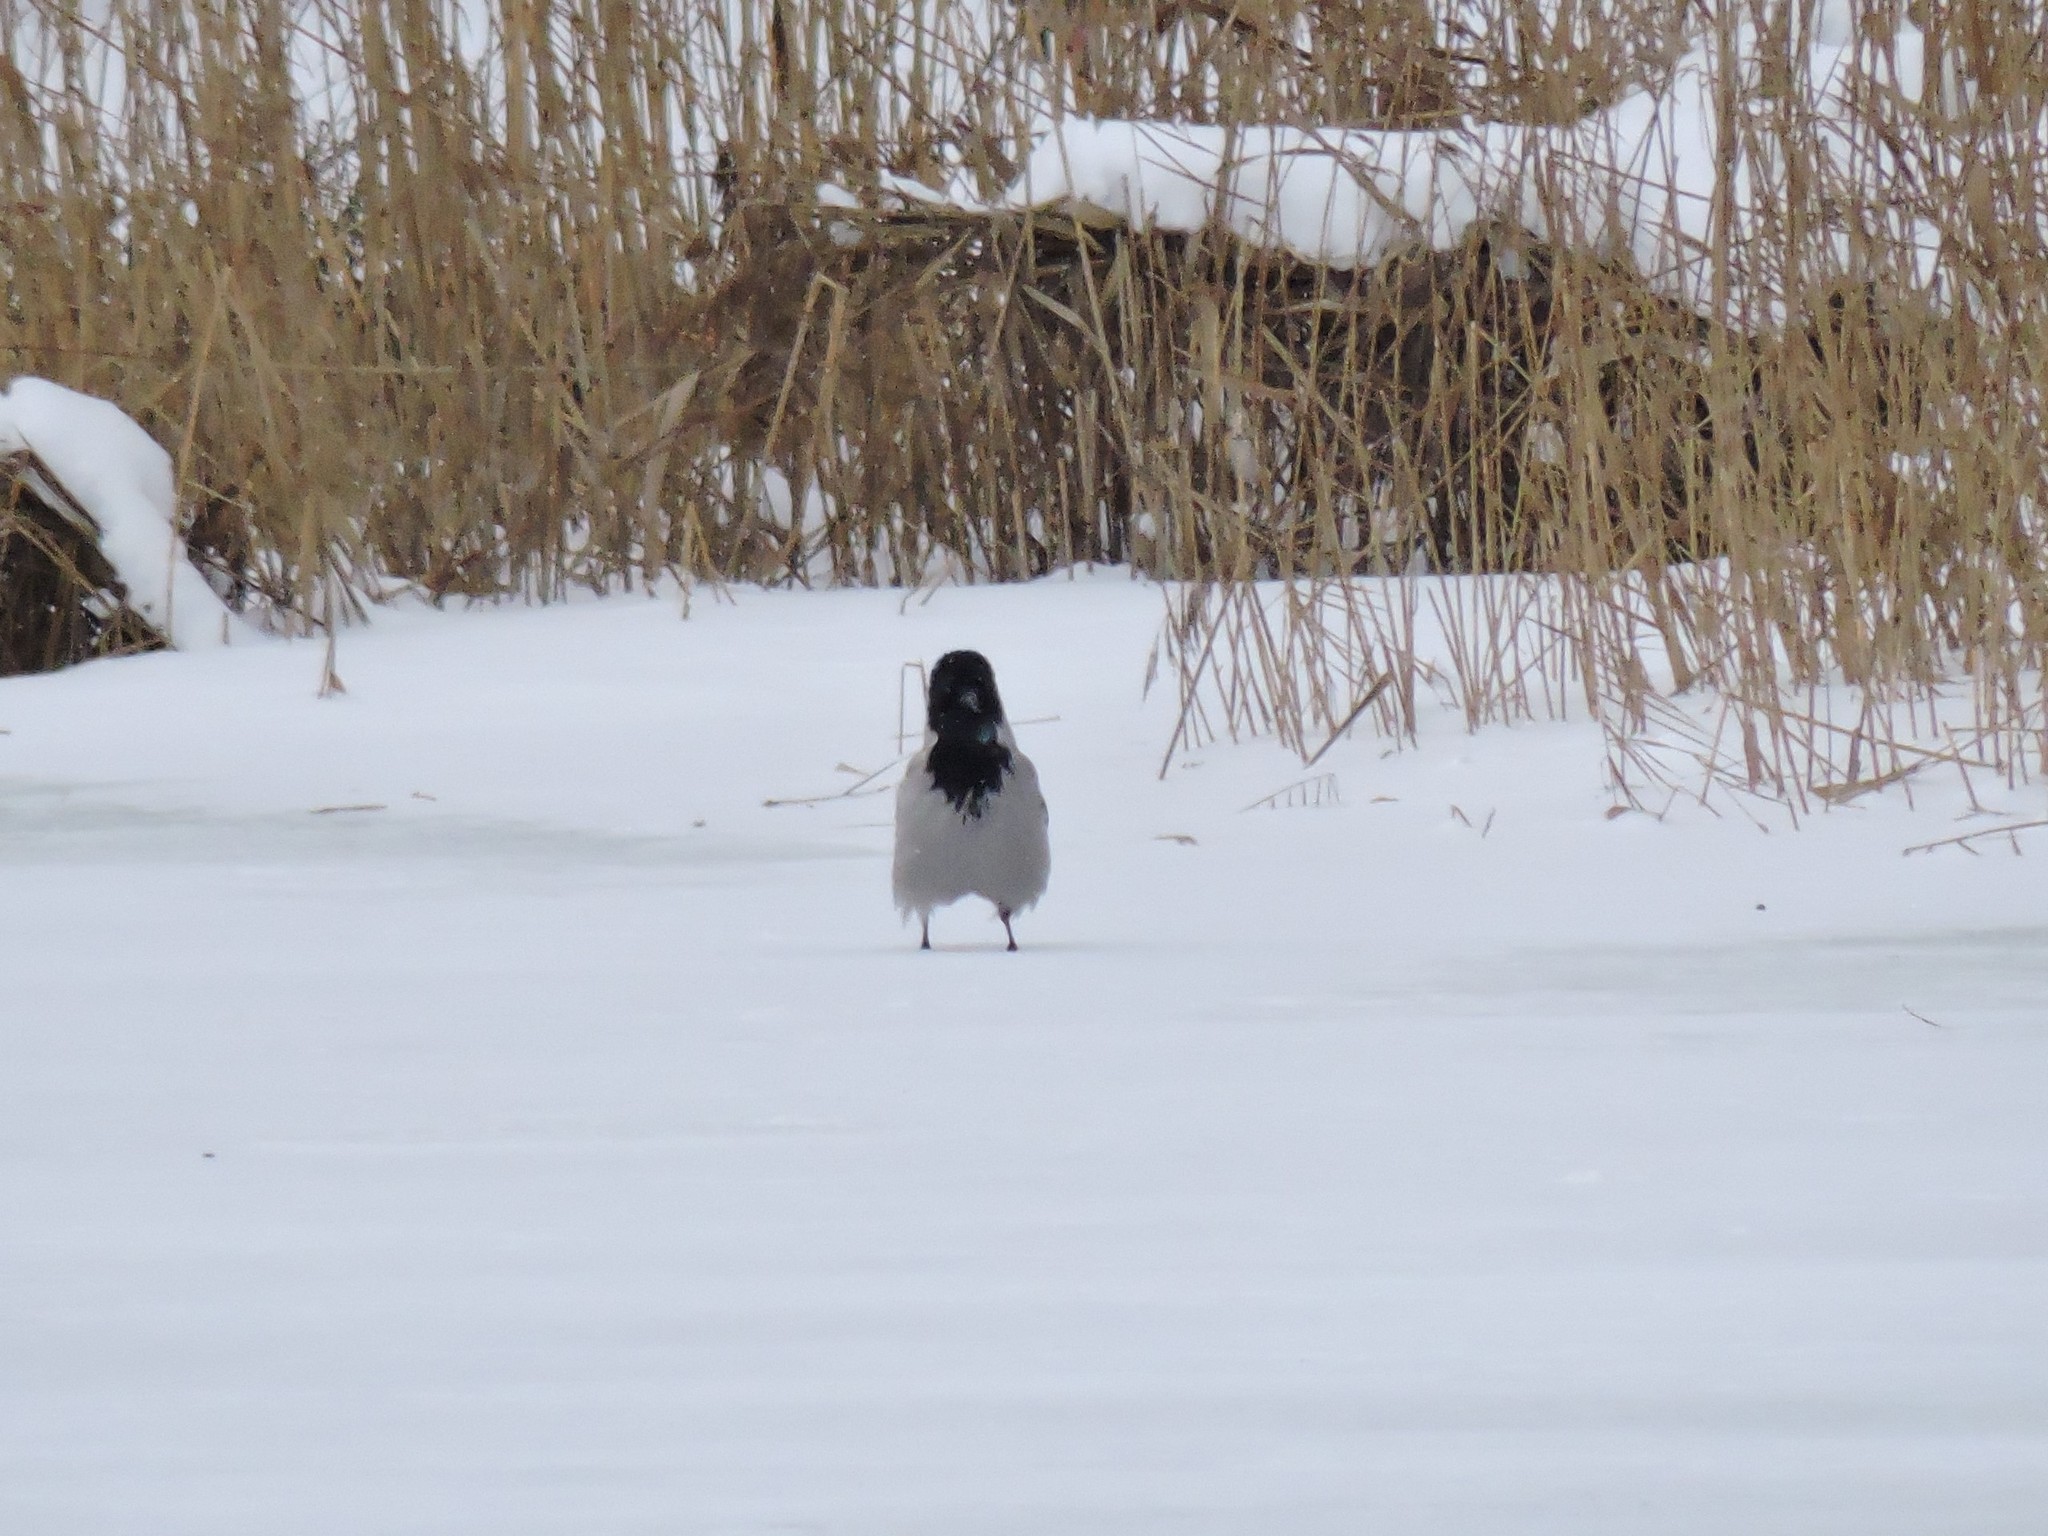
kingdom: Animalia
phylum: Chordata
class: Aves
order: Passeriformes
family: Corvidae
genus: Corvus
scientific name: Corvus cornix
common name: Hooded crow
